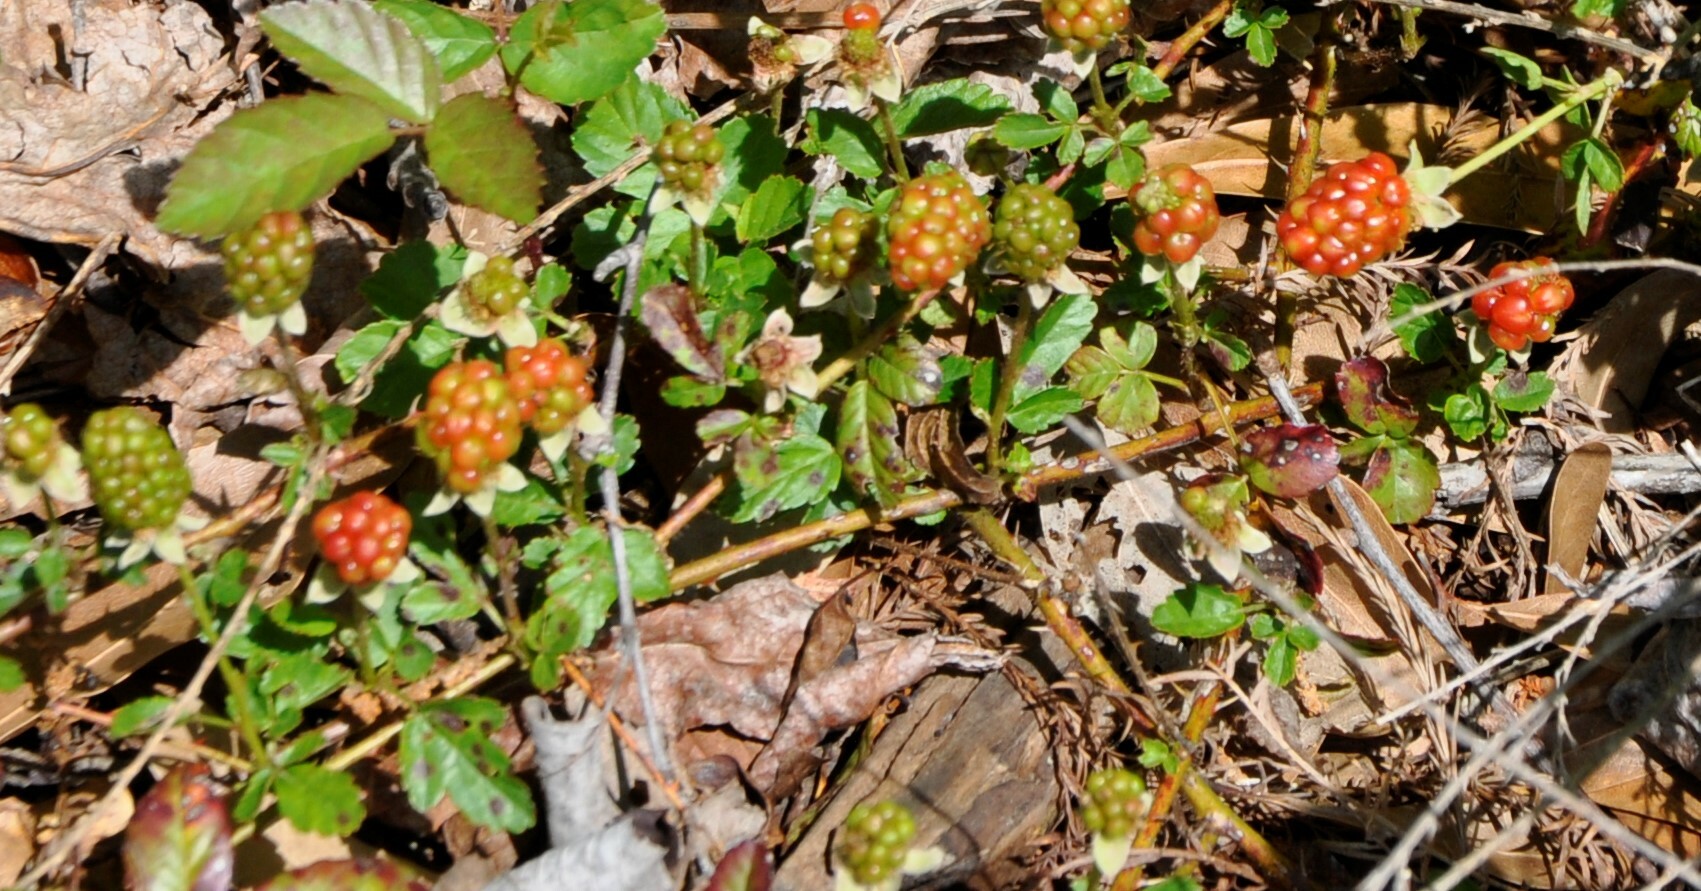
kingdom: Plantae
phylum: Tracheophyta
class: Magnoliopsida
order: Rosales
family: Rosaceae
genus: Rubus
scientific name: Rubus trivialis
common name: Southern dewberry
